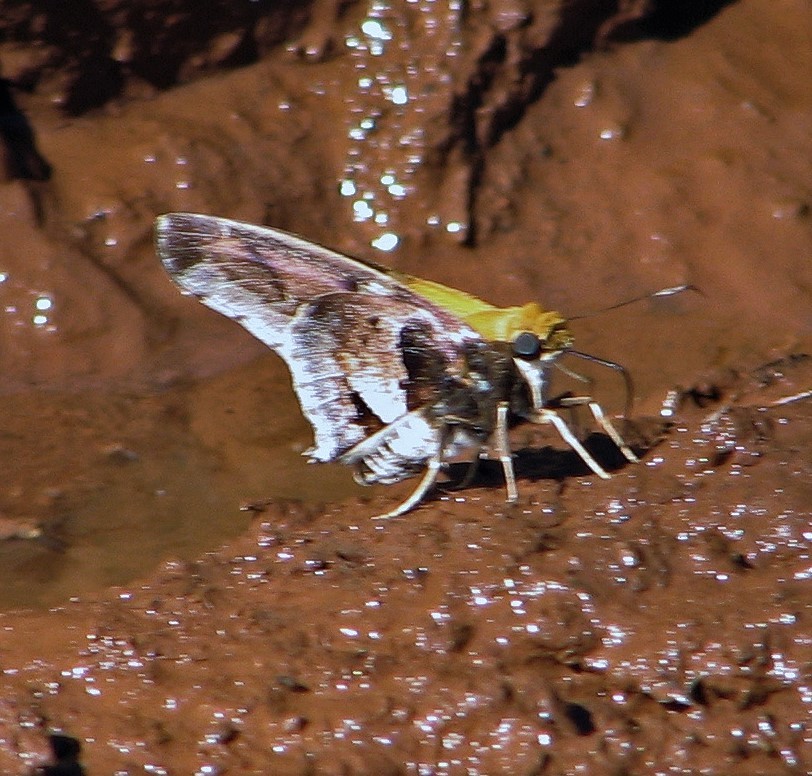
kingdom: Animalia
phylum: Arthropoda
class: Insecta
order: Lepidoptera
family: Hesperiidae
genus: Proteides
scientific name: Proteides mercurius
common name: Mercurial skipper
